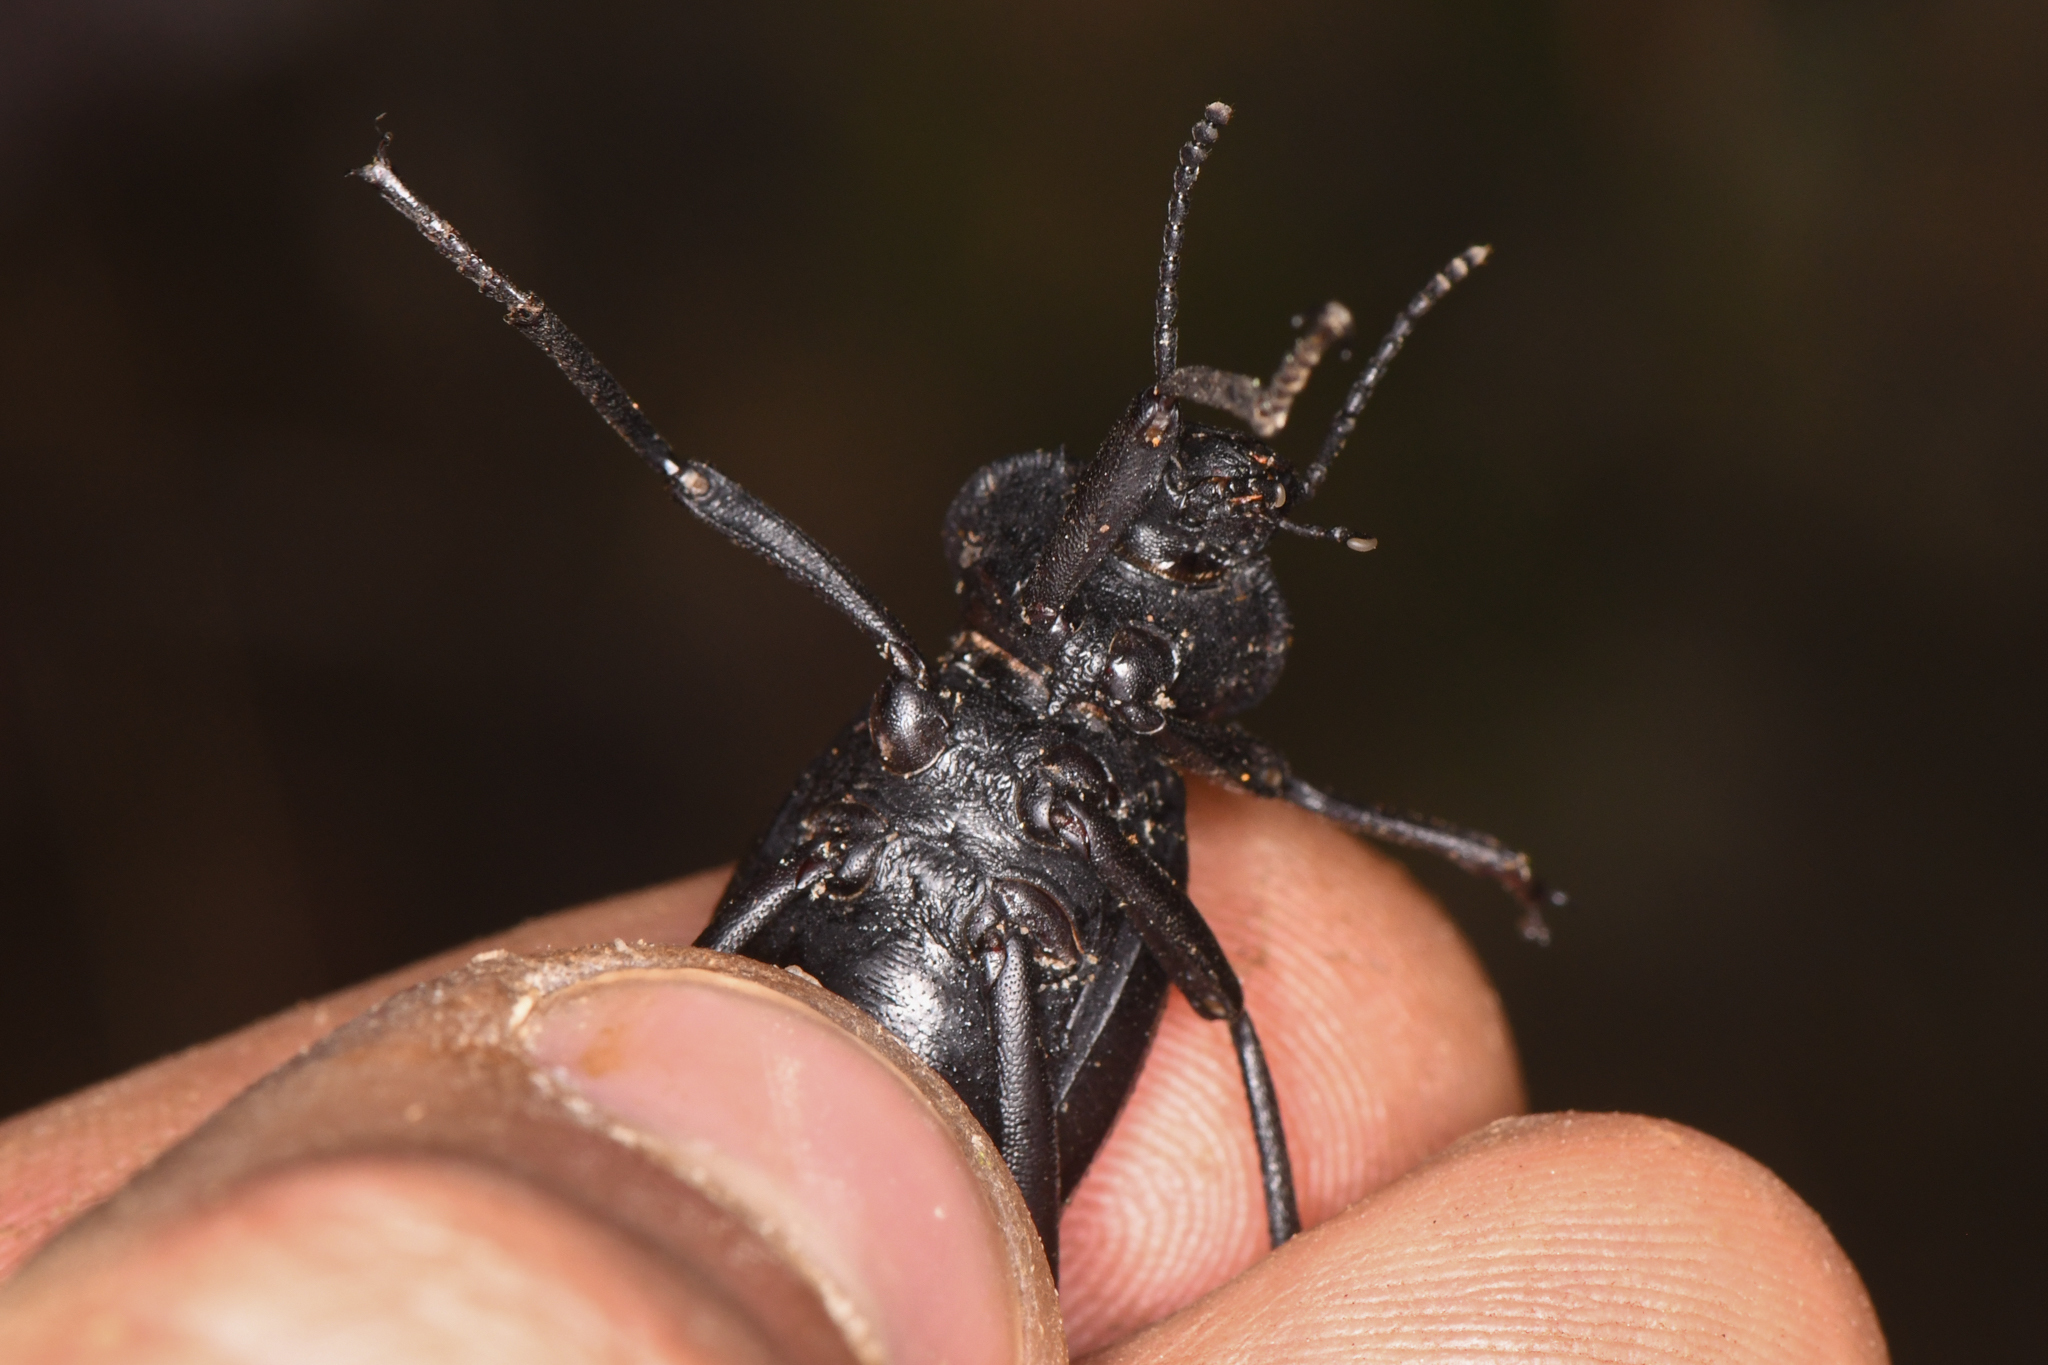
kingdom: Animalia
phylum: Arthropoda
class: Insecta
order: Coleoptera
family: Tenebrionidae
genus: Eleodes
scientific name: Eleodes acuticauda
